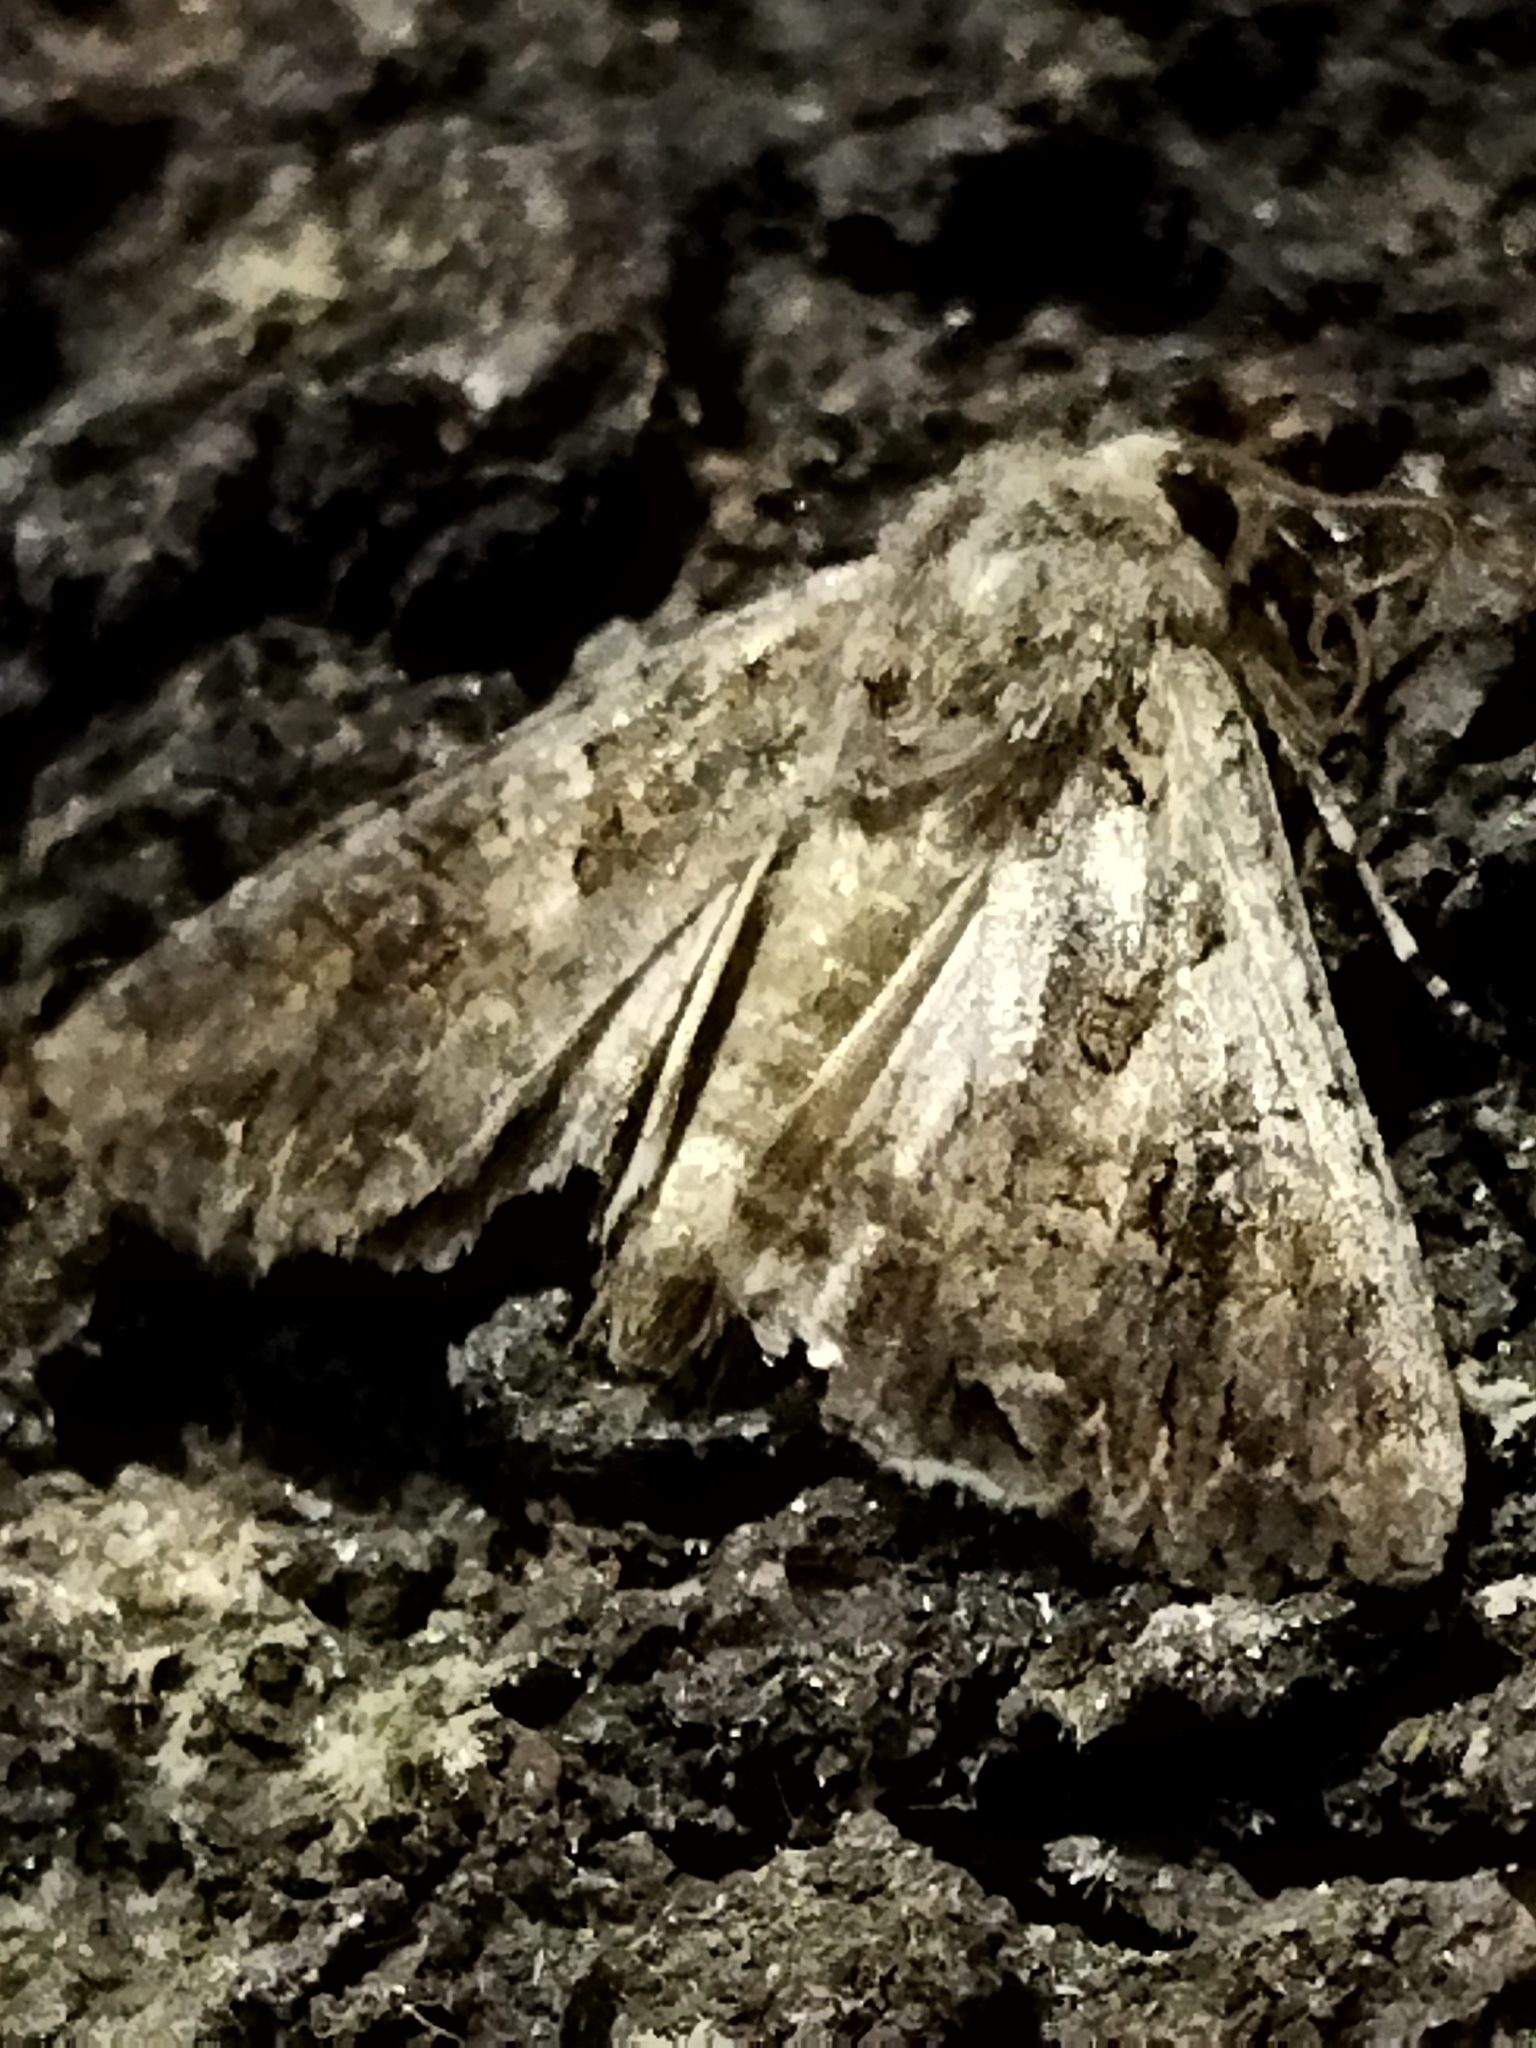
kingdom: Animalia
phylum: Arthropoda
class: Insecta
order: Lepidoptera
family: Noctuidae
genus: Anarta
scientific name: Anarta trifolii
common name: Clover cutworm moth
